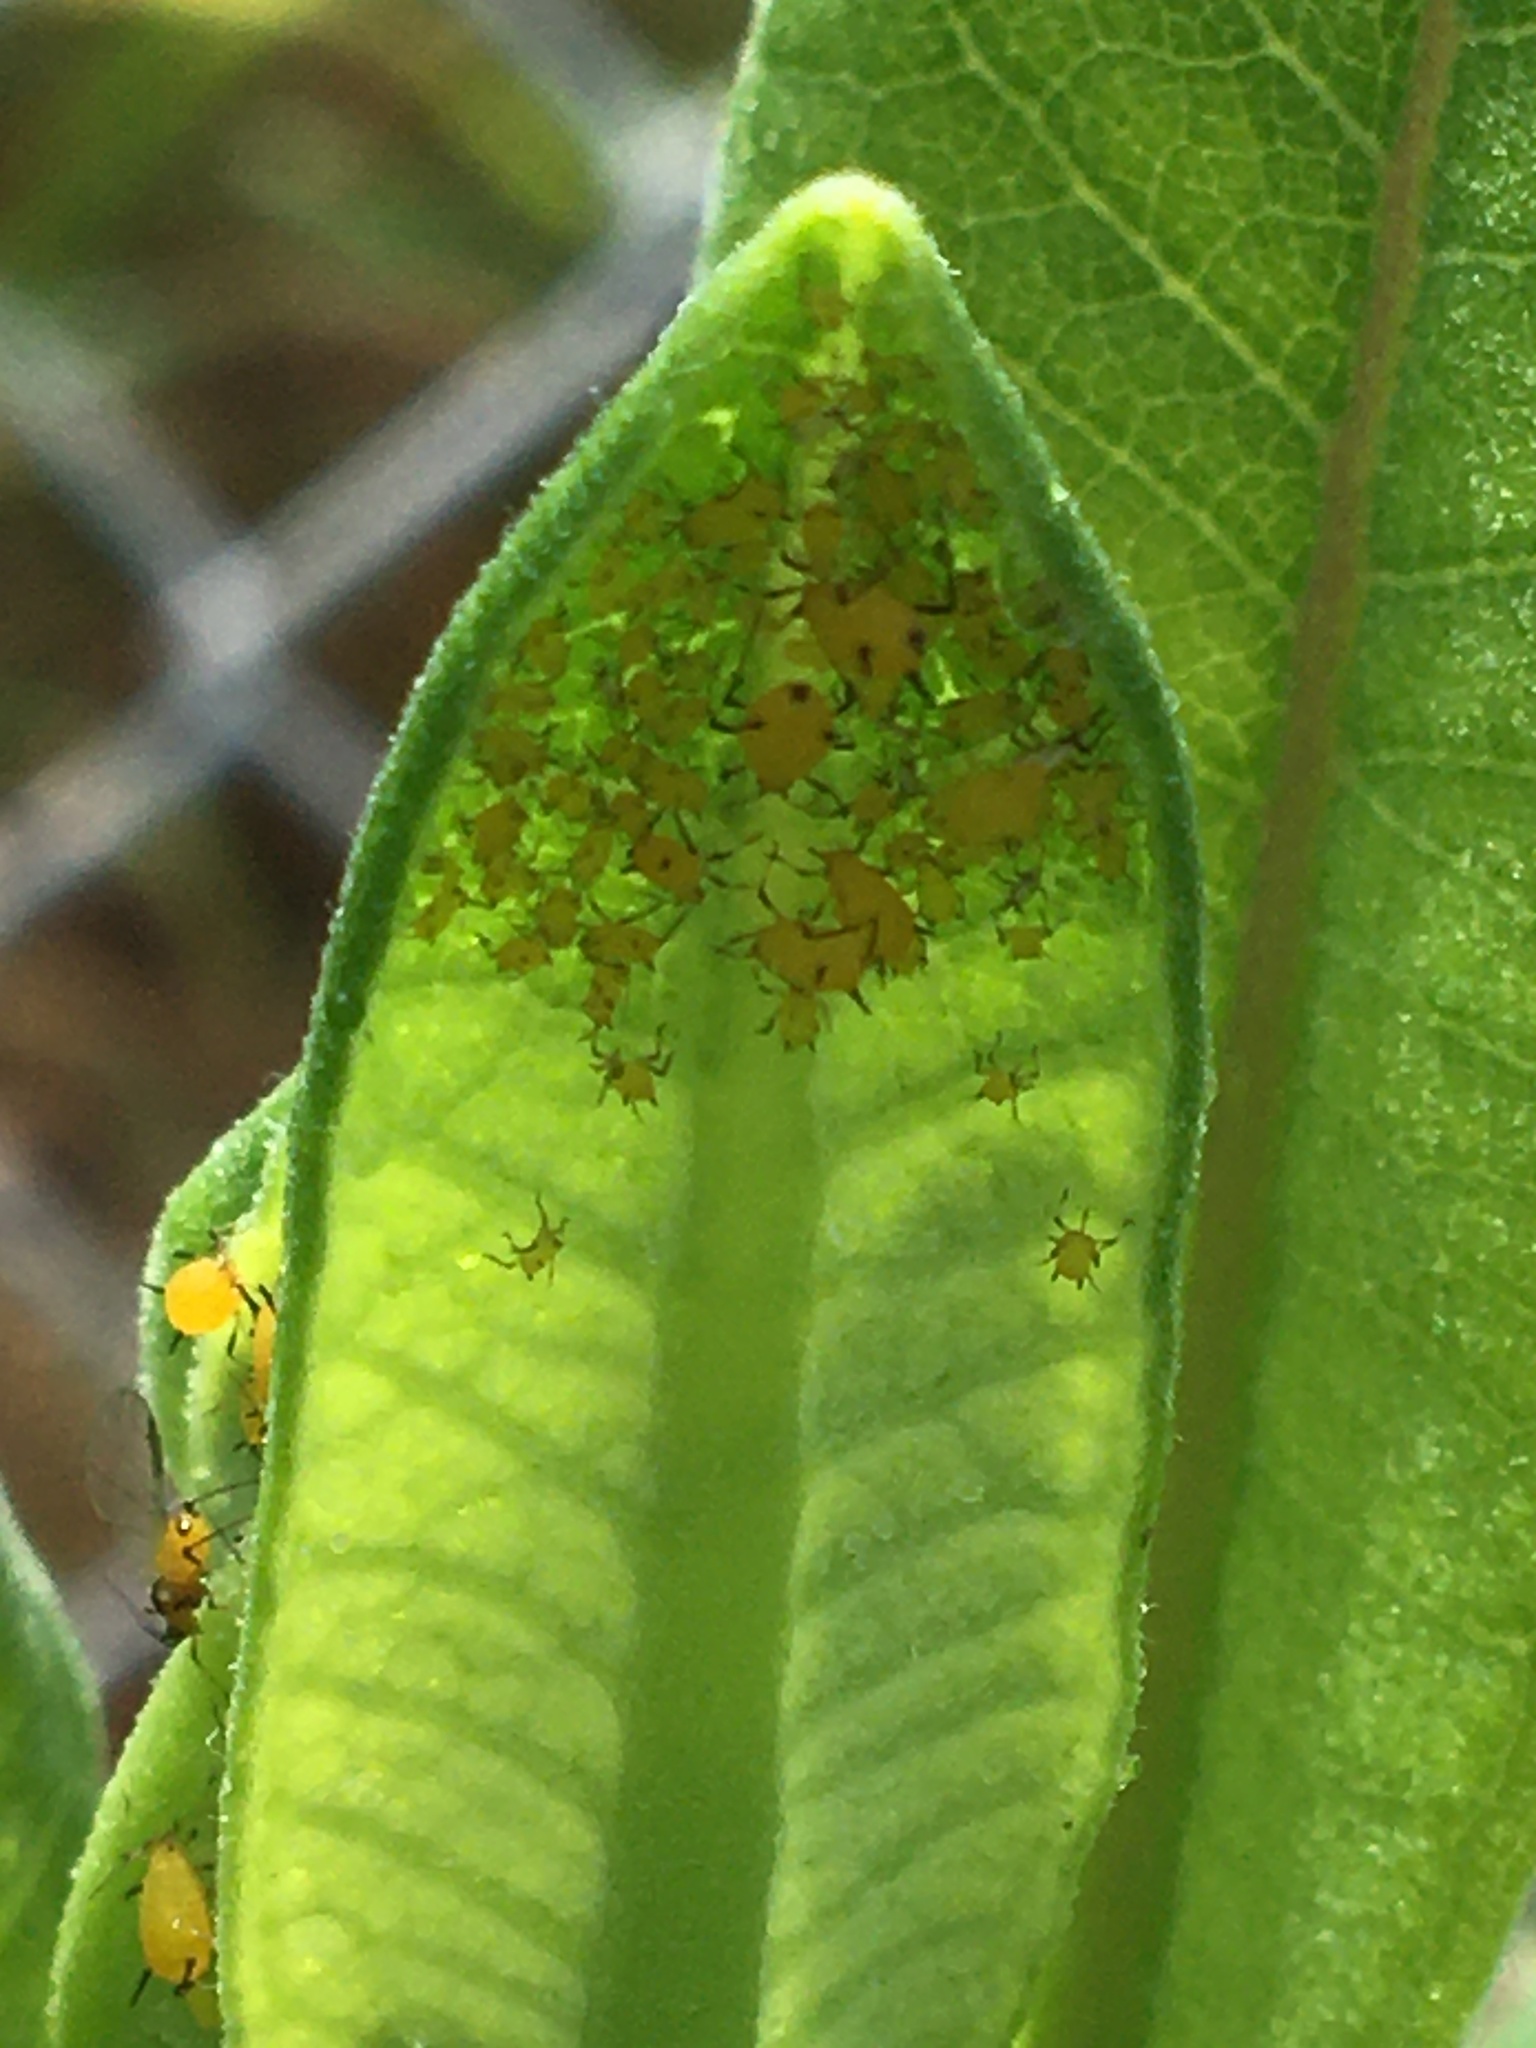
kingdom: Animalia
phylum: Arthropoda
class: Insecta
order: Hemiptera
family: Aphididae
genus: Aphis
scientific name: Aphis nerii
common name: Oleander aphid
